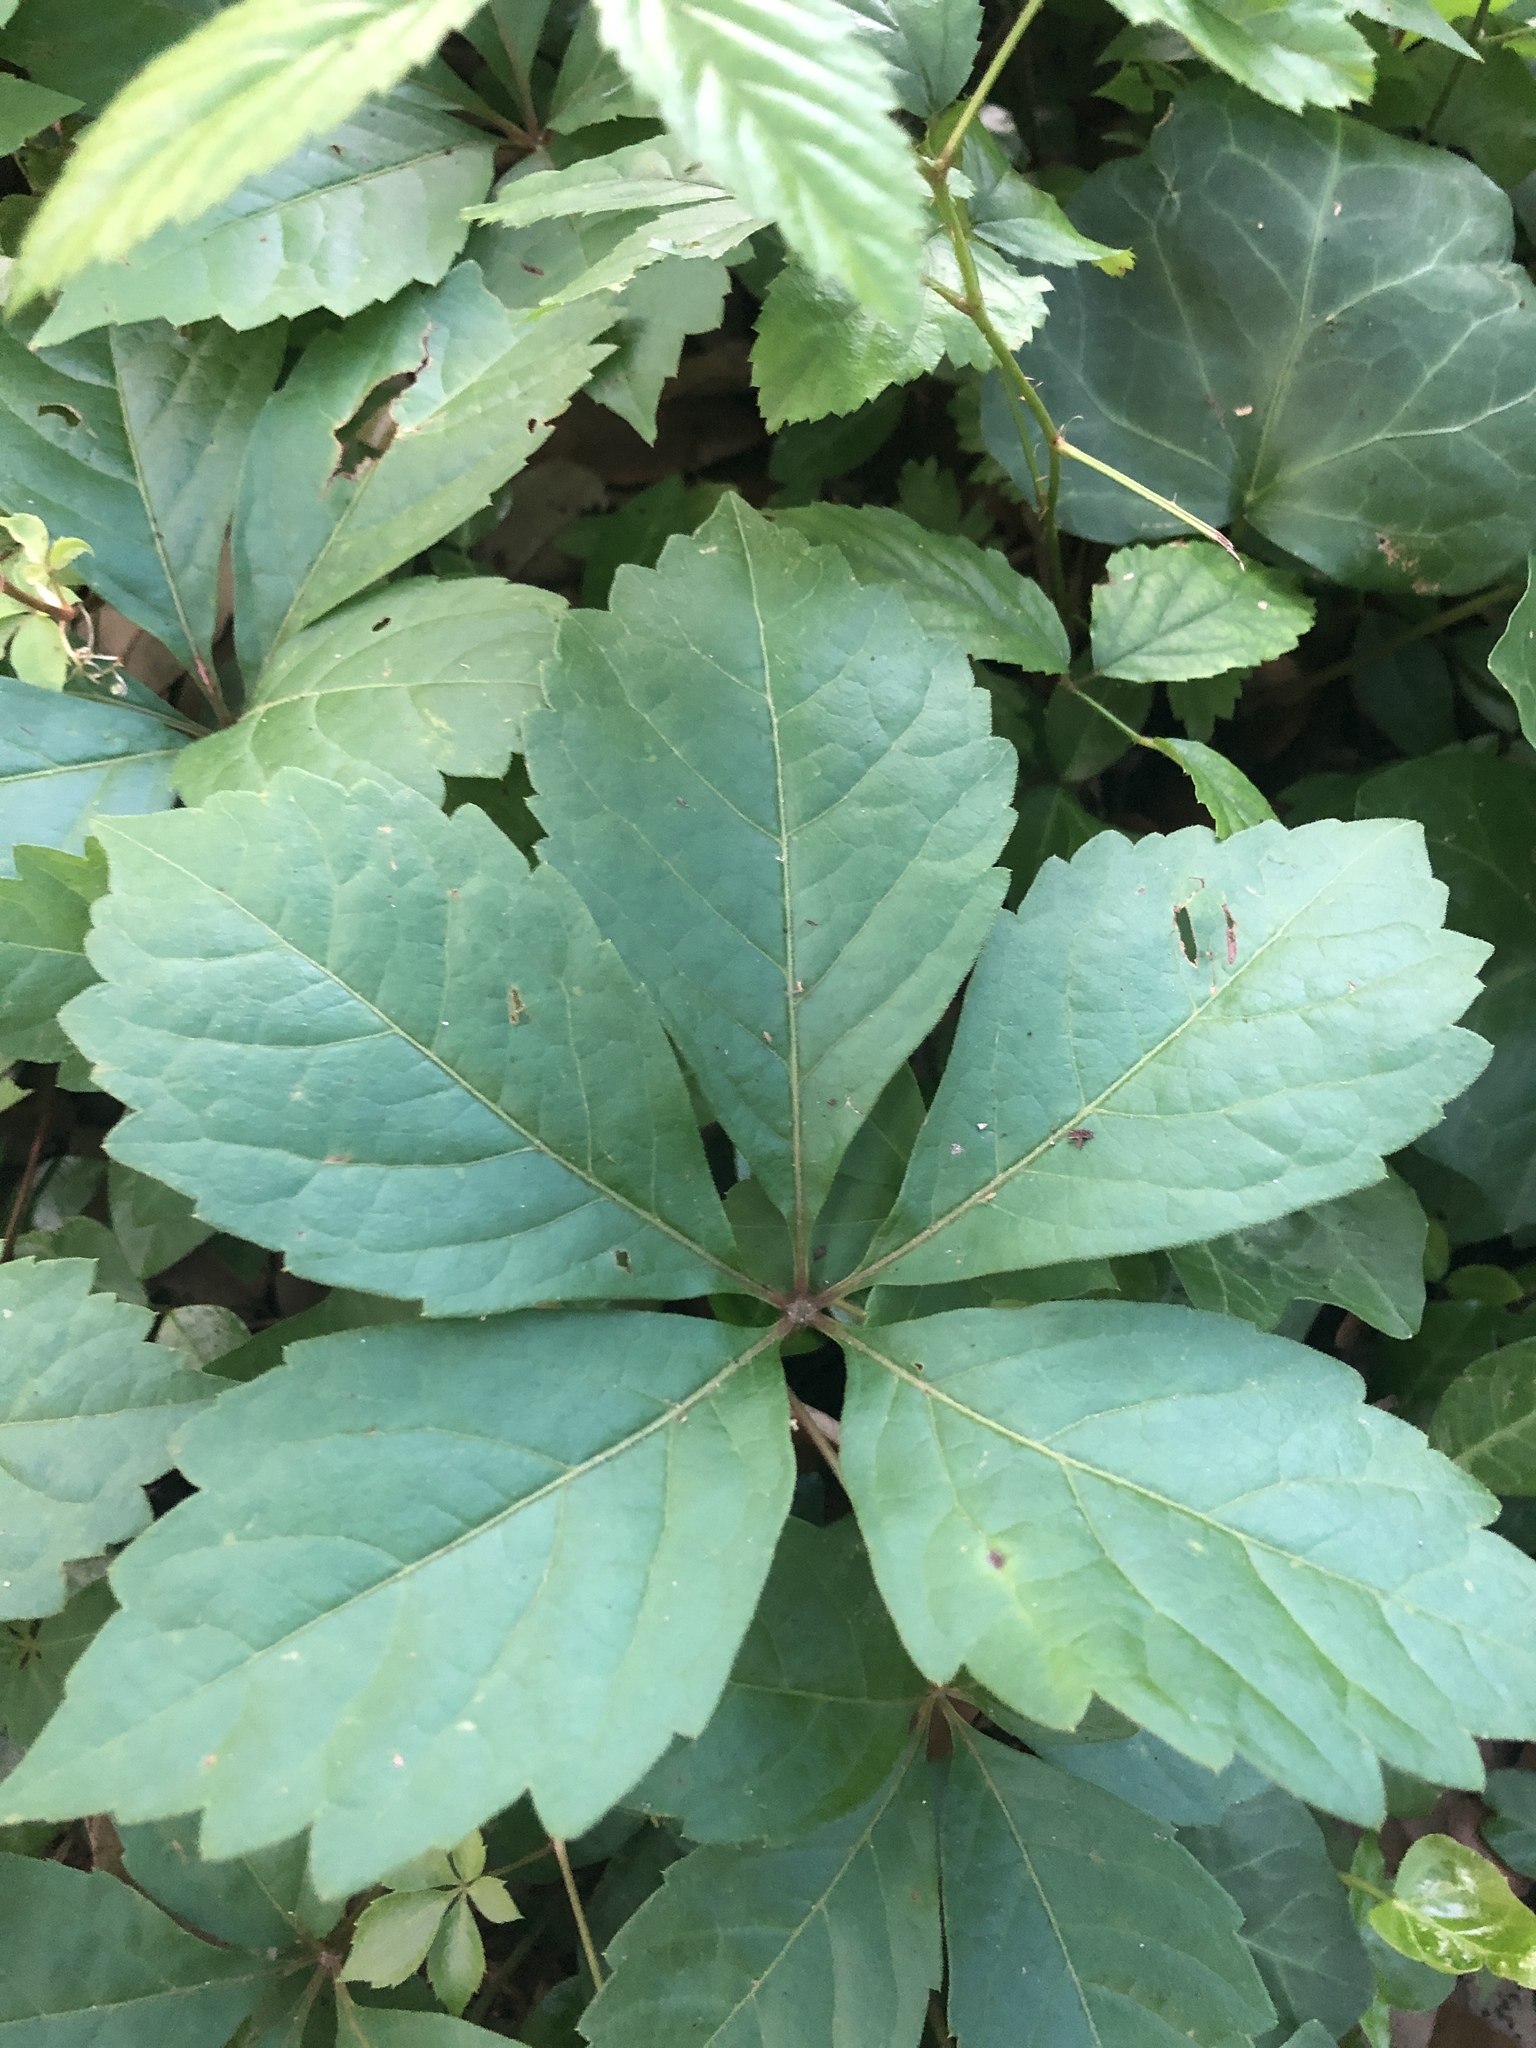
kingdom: Plantae
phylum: Tracheophyta
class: Magnoliopsida
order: Vitales
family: Vitaceae
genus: Parthenocissus
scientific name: Parthenocissus quinquefolia
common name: Virginia-creeper
